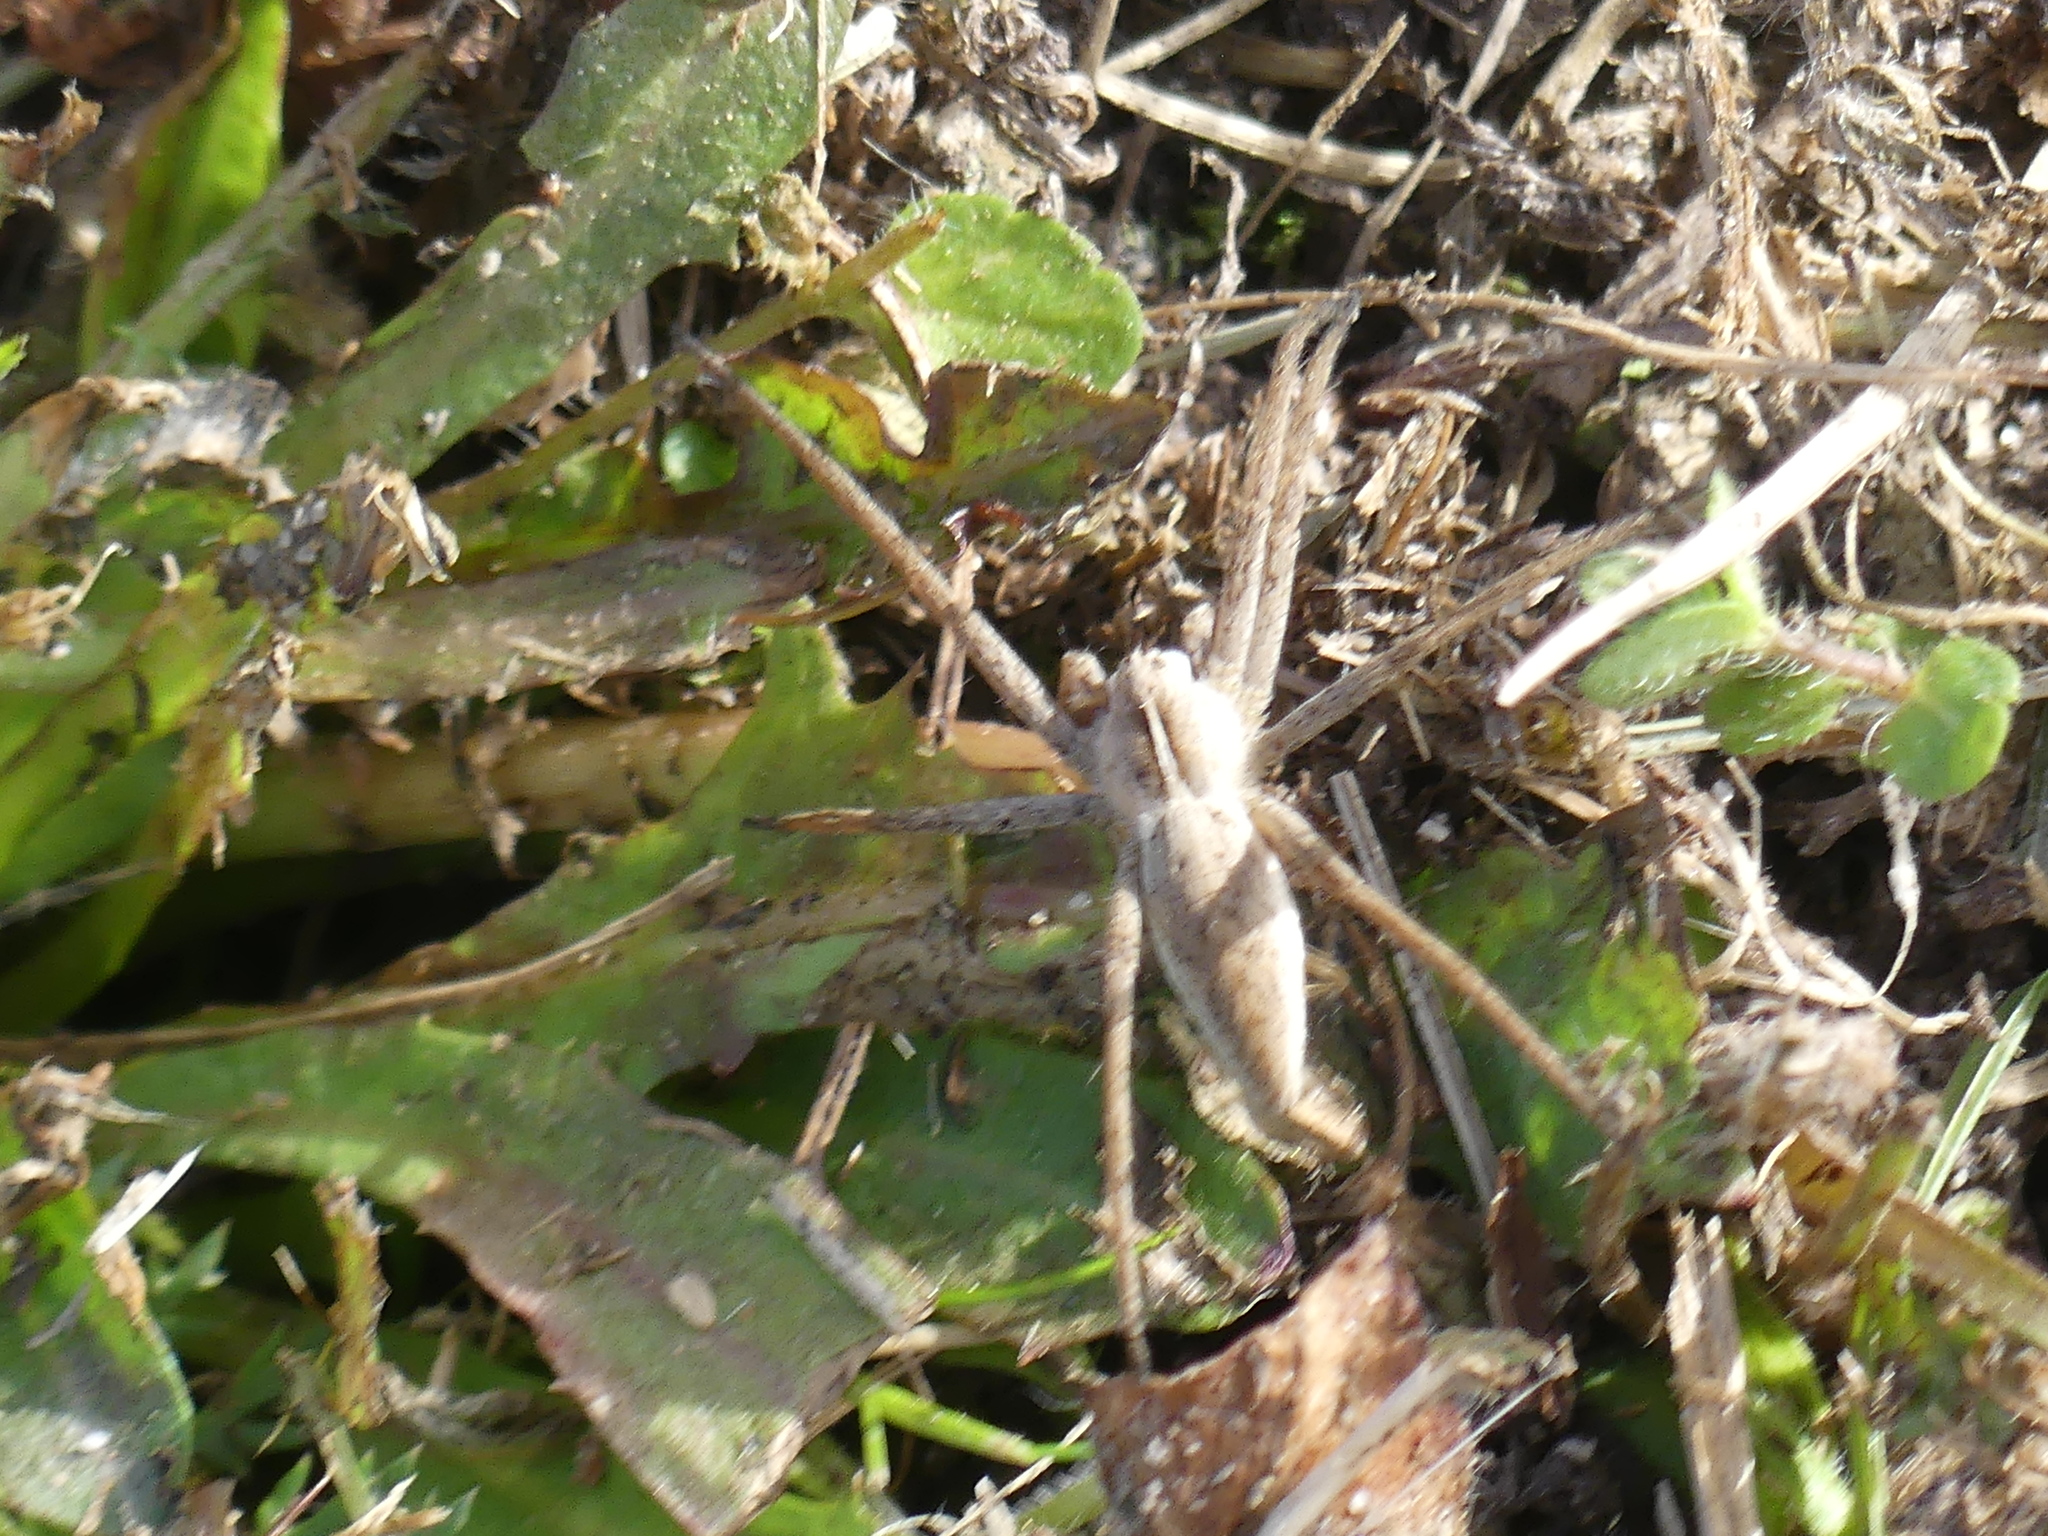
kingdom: Animalia
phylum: Arthropoda
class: Arachnida
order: Araneae
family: Pisauridae
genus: Pisaura
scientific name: Pisaura mirabilis
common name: Tent spider
